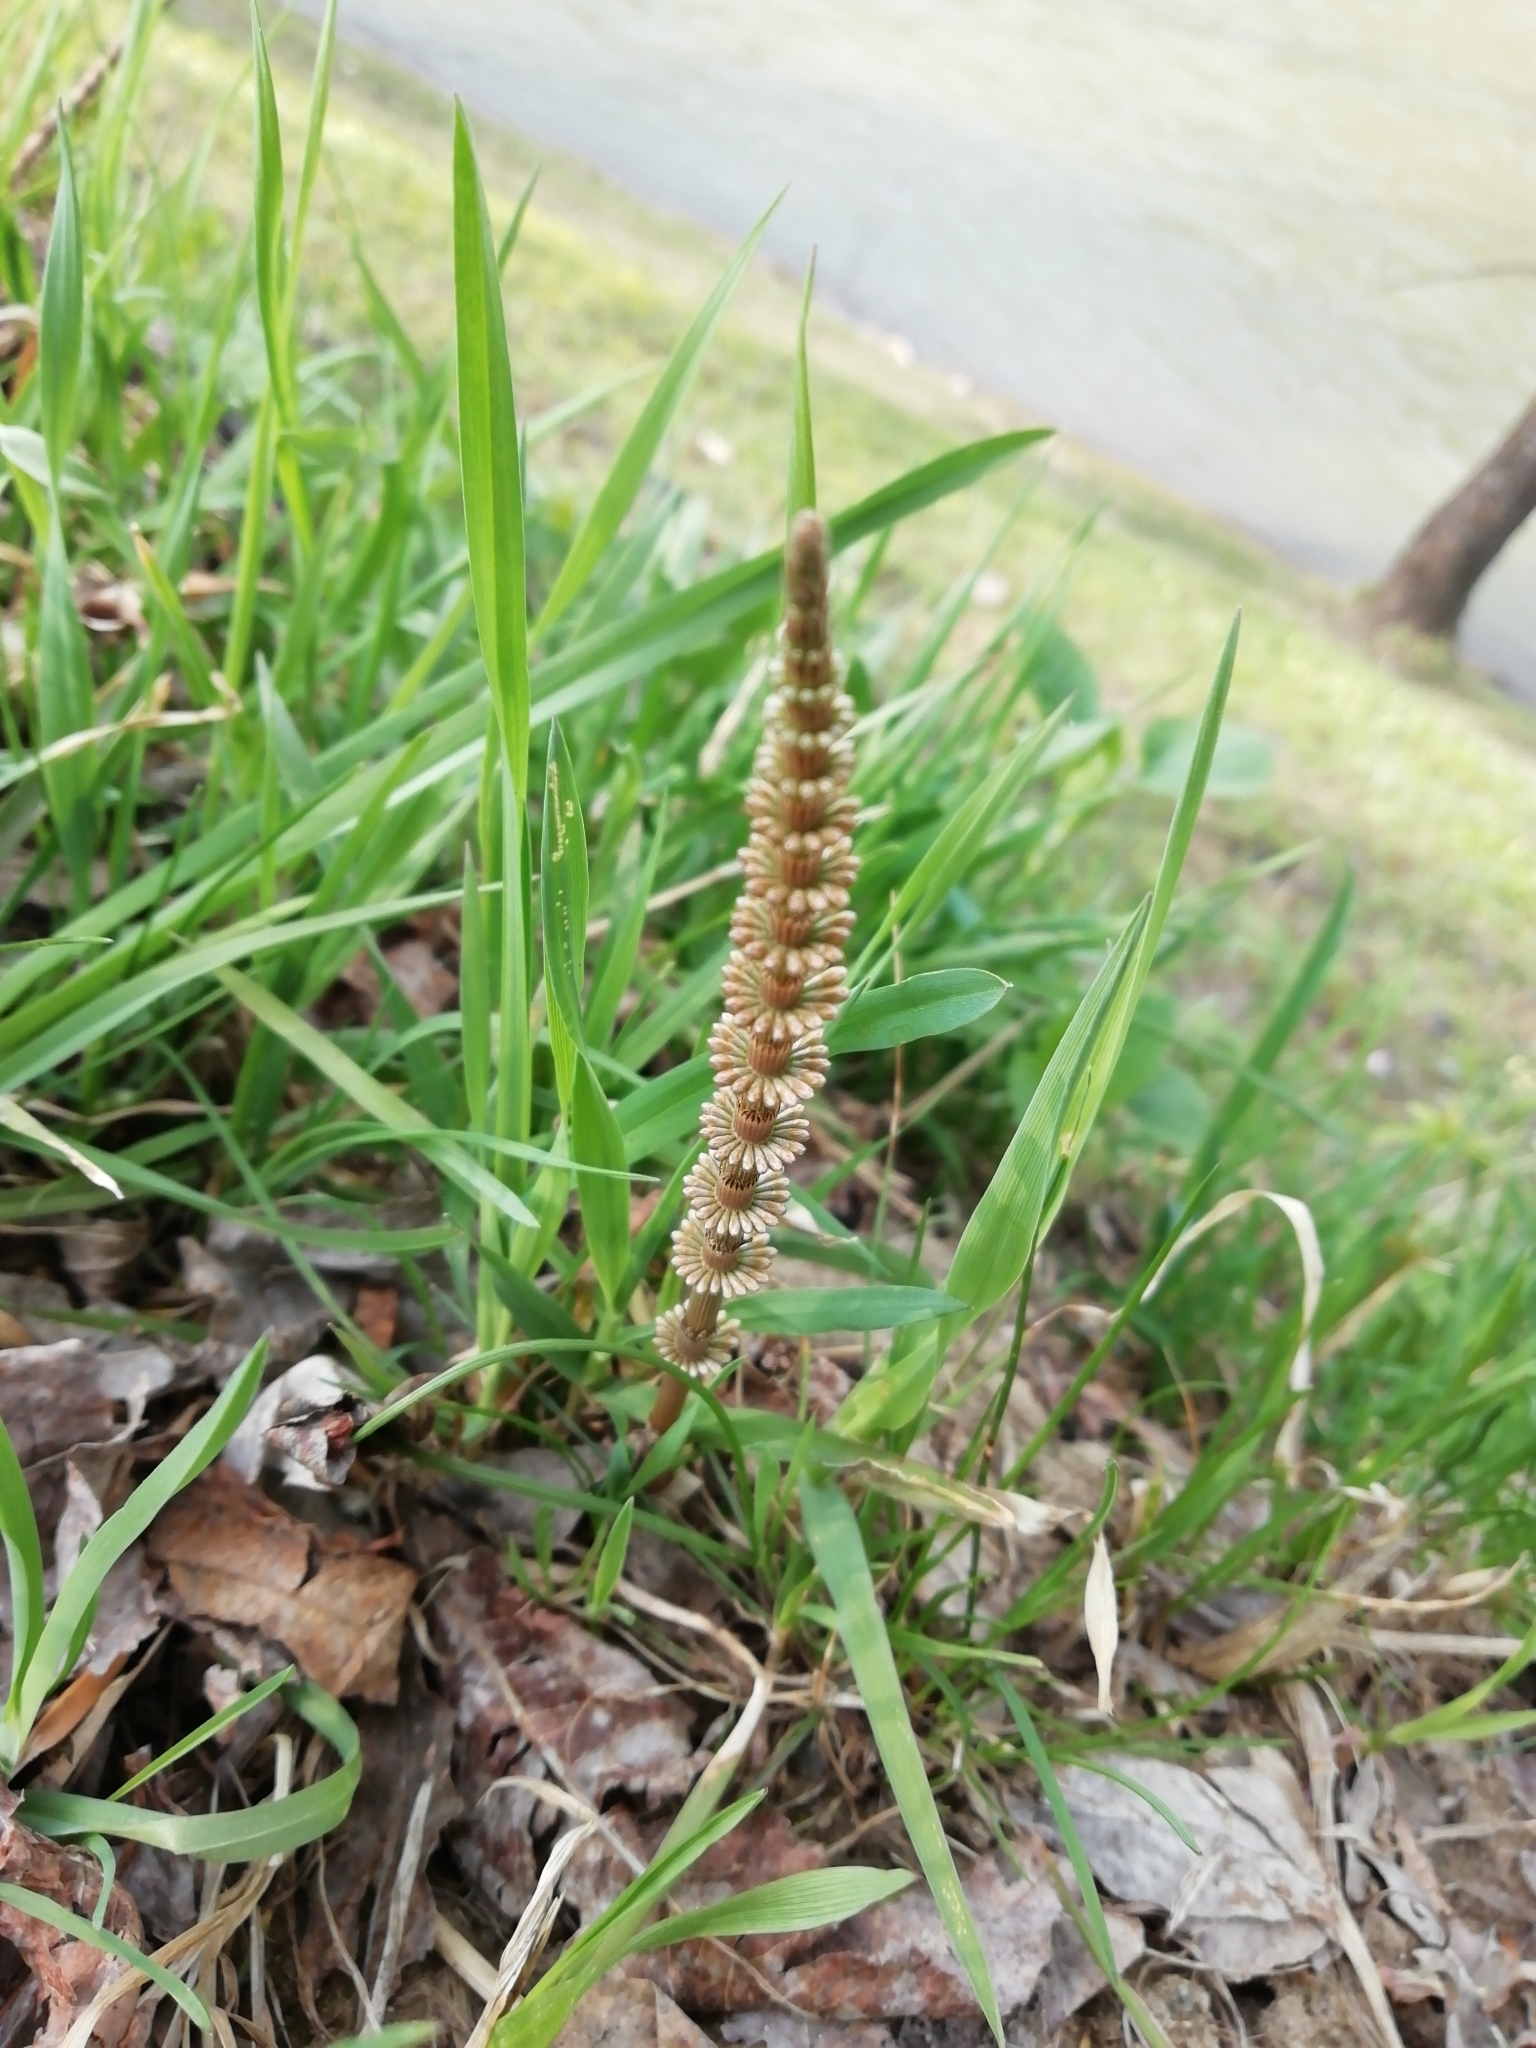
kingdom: Plantae
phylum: Tracheophyta
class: Polypodiopsida
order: Equisetales
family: Equisetaceae
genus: Equisetum
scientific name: Equisetum pratense
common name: Meadow horsetail
